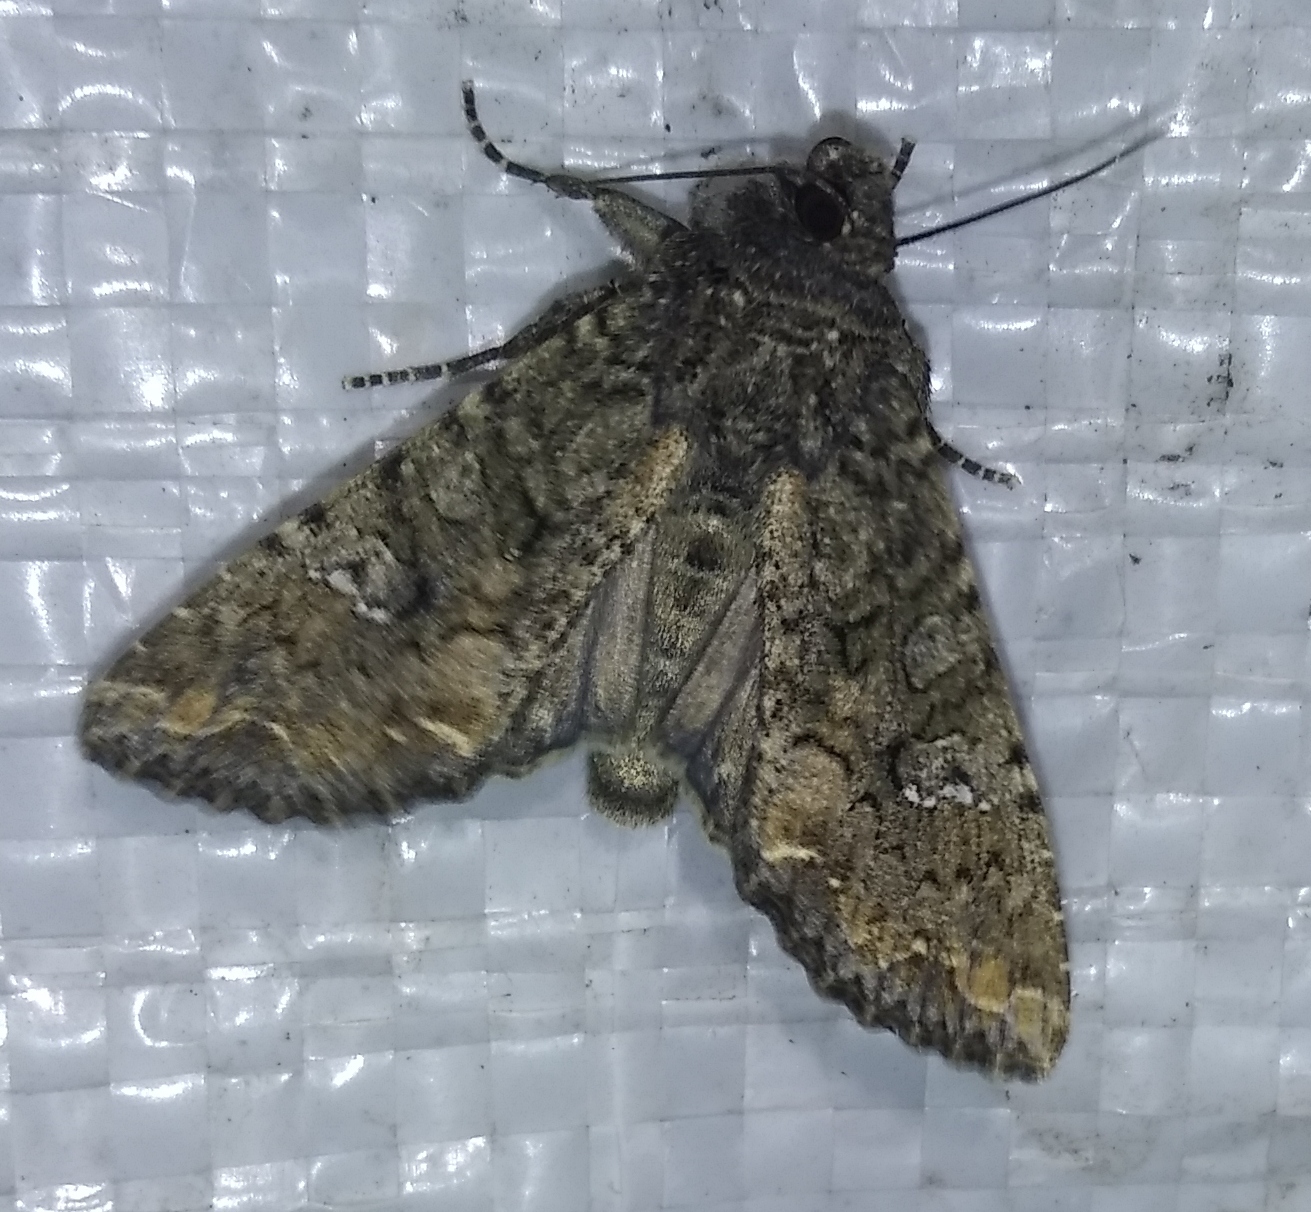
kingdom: Animalia
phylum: Arthropoda
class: Insecta
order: Lepidoptera
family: Noctuidae
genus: Mamestra
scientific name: Mamestra brassicae
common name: Cabbage moth
